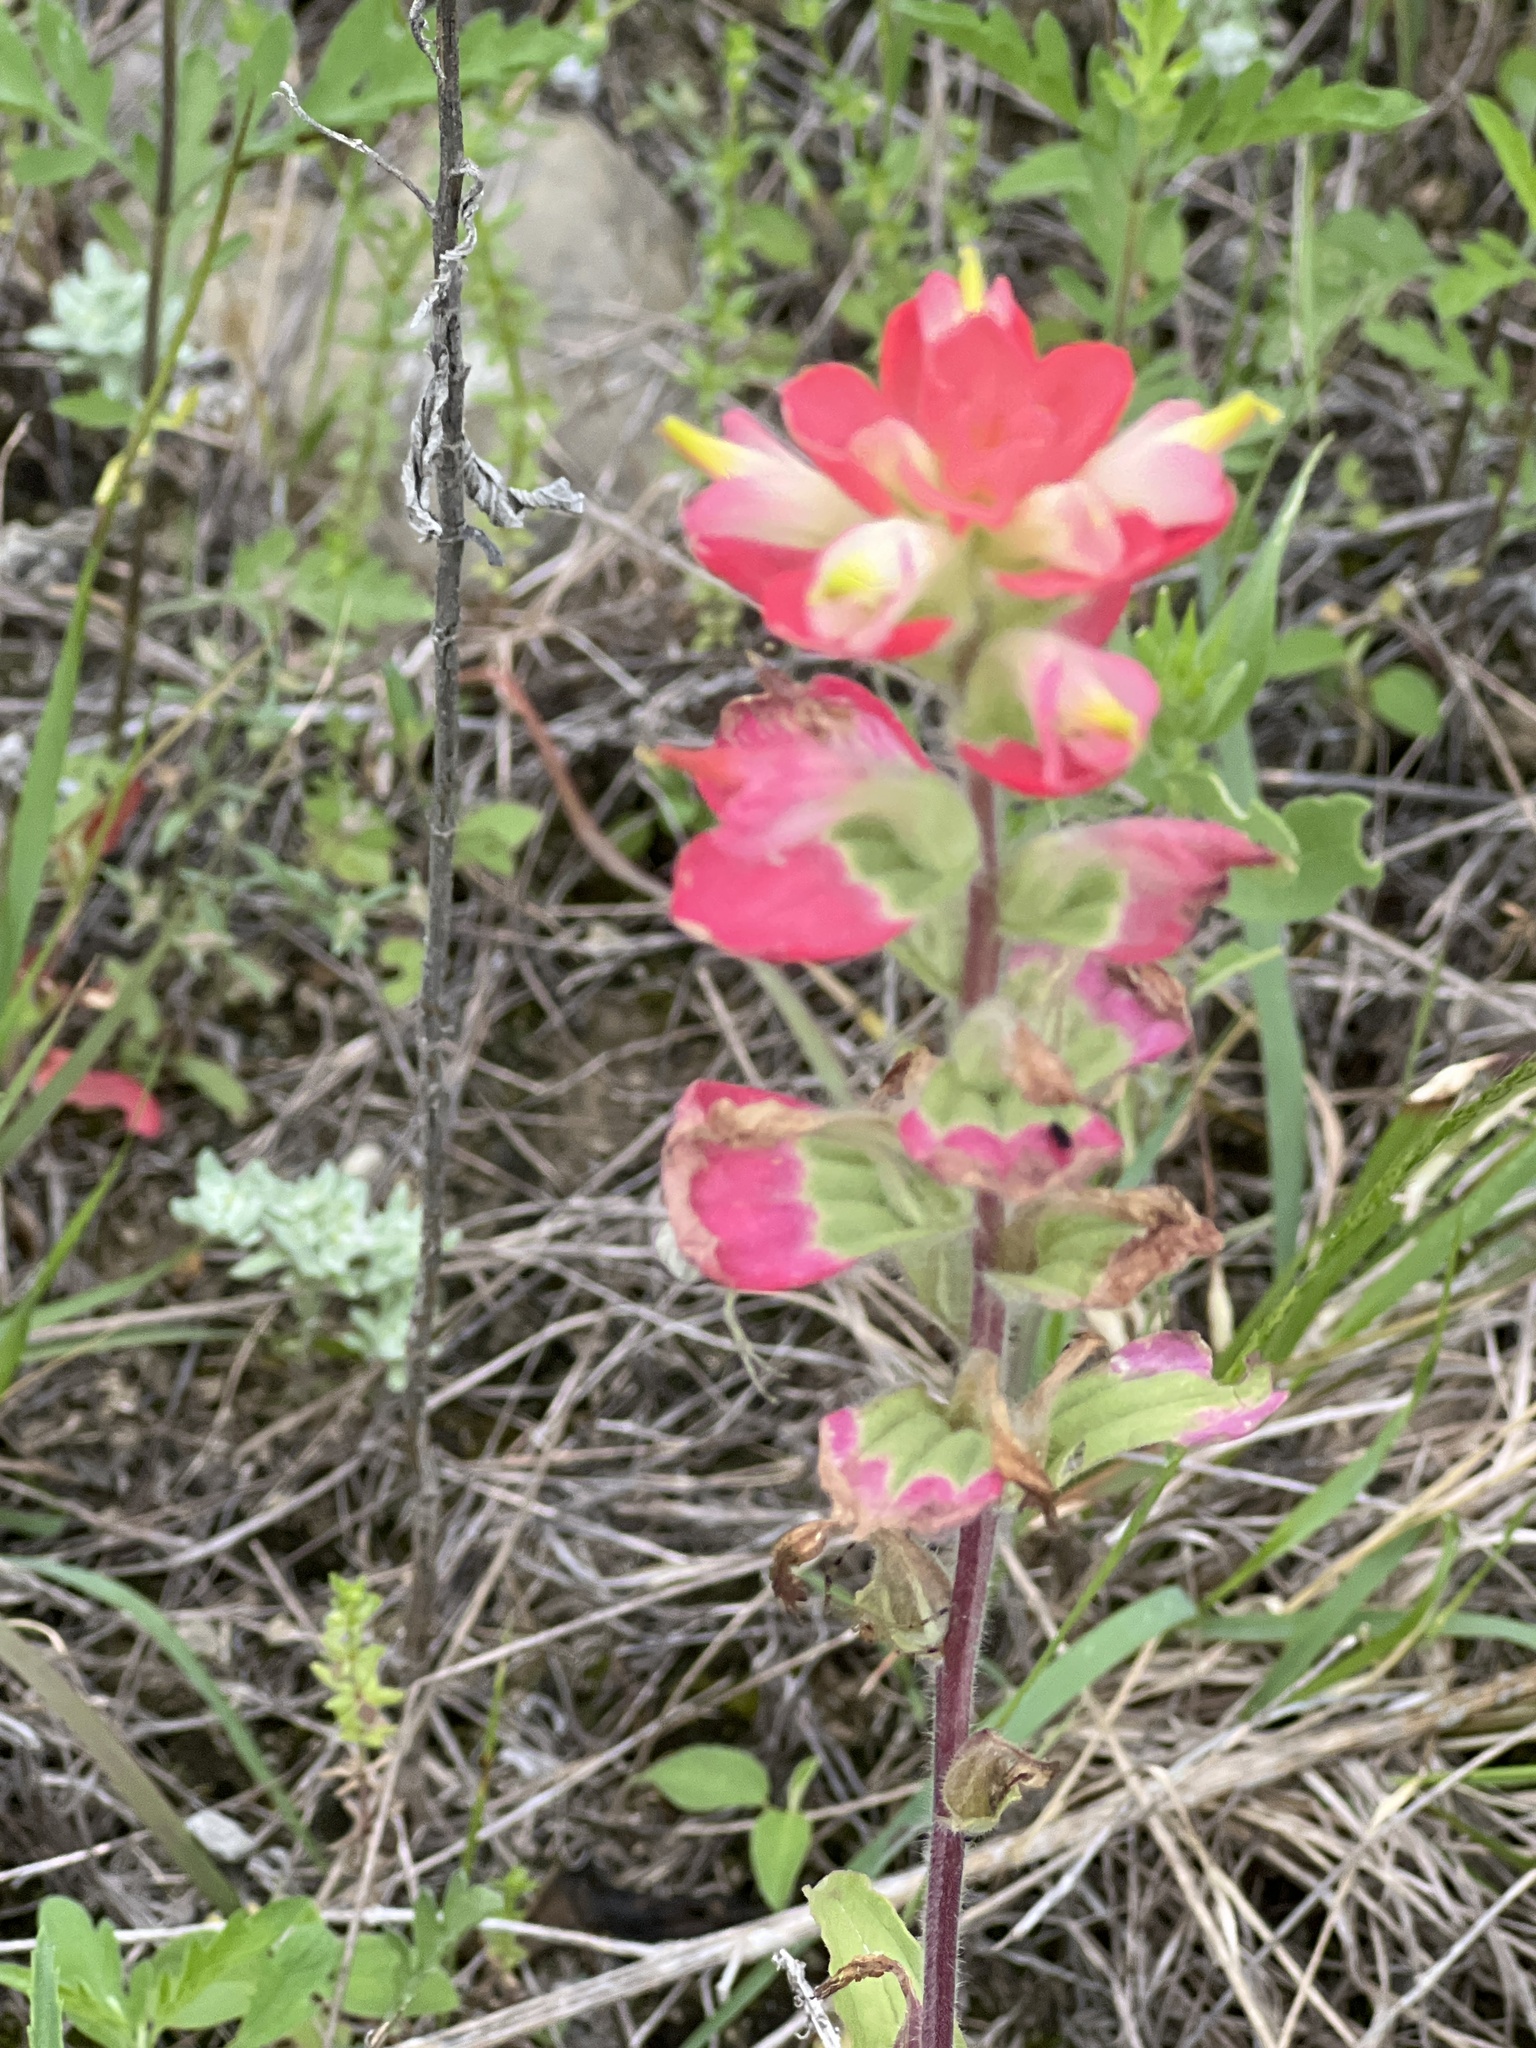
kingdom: Plantae
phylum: Tracheophyta
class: Magnoliopsida
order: Lamiales
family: Orobanchaceae
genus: Castilleja
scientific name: Castilleja indivisa
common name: Texas paintbrush
